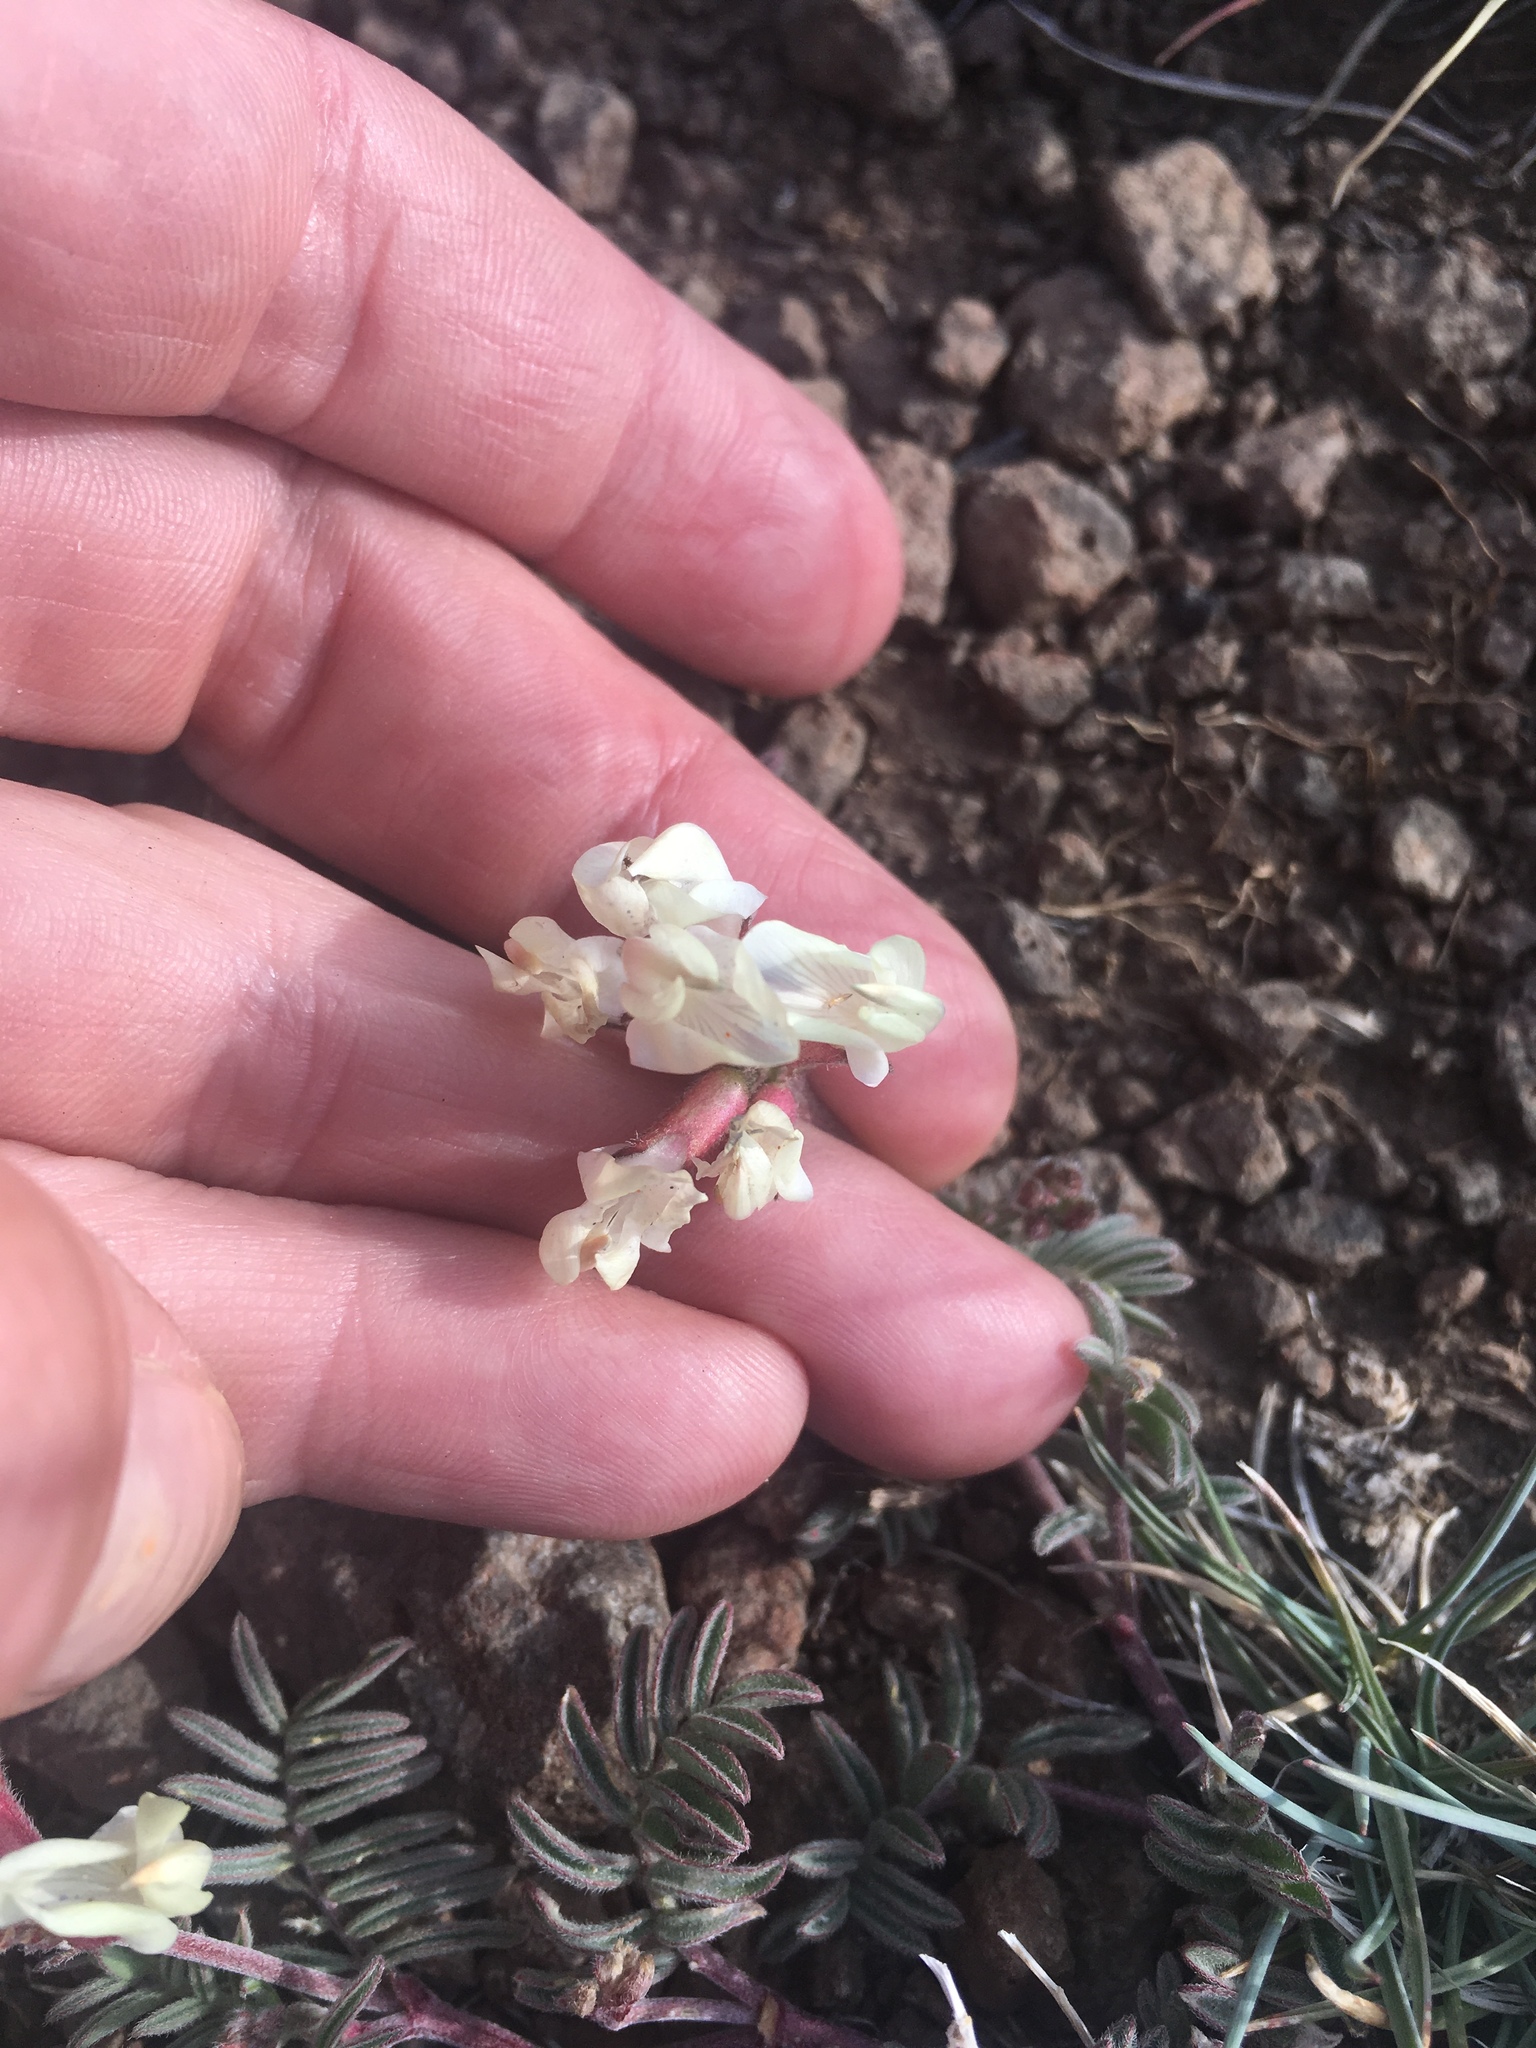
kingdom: Plantae
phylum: Tracheophyta
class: Magnoliopsida
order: Fabales
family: Fabaceae
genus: Astragalus
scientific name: Astragalus whitneyi
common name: Balloonpod milkvetch
